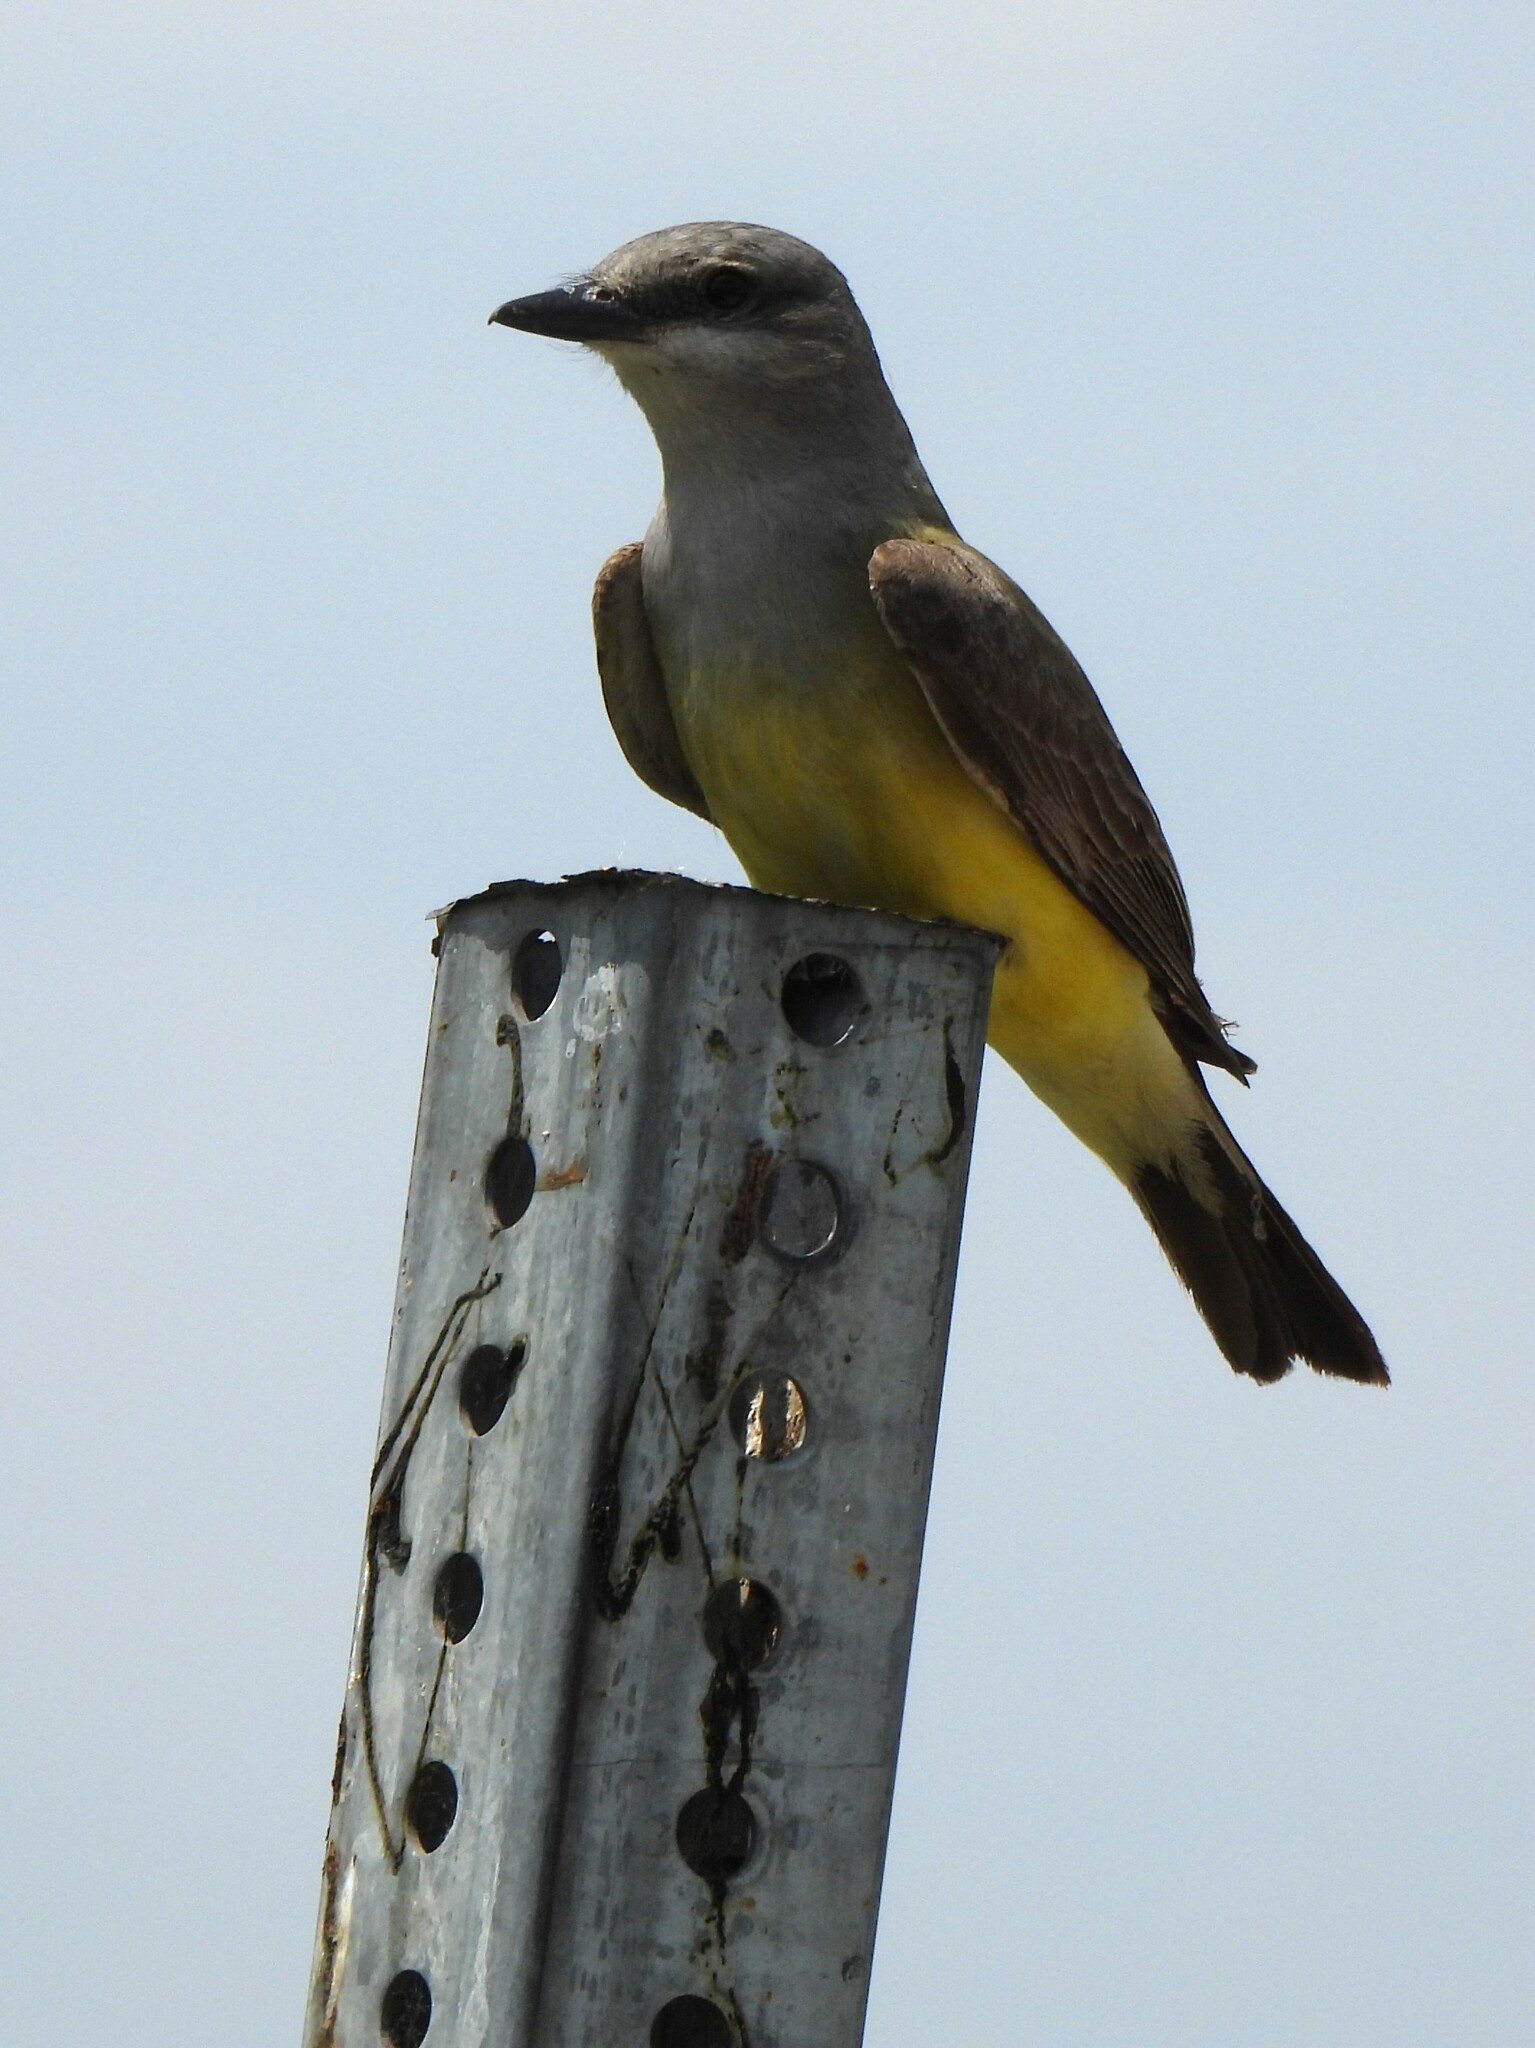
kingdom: Animalia
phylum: Chordata
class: Aves
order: Passeriformes
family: Tyrannidae
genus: Tyrannus
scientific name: Tyrannus verticalis
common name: Western kingbird
